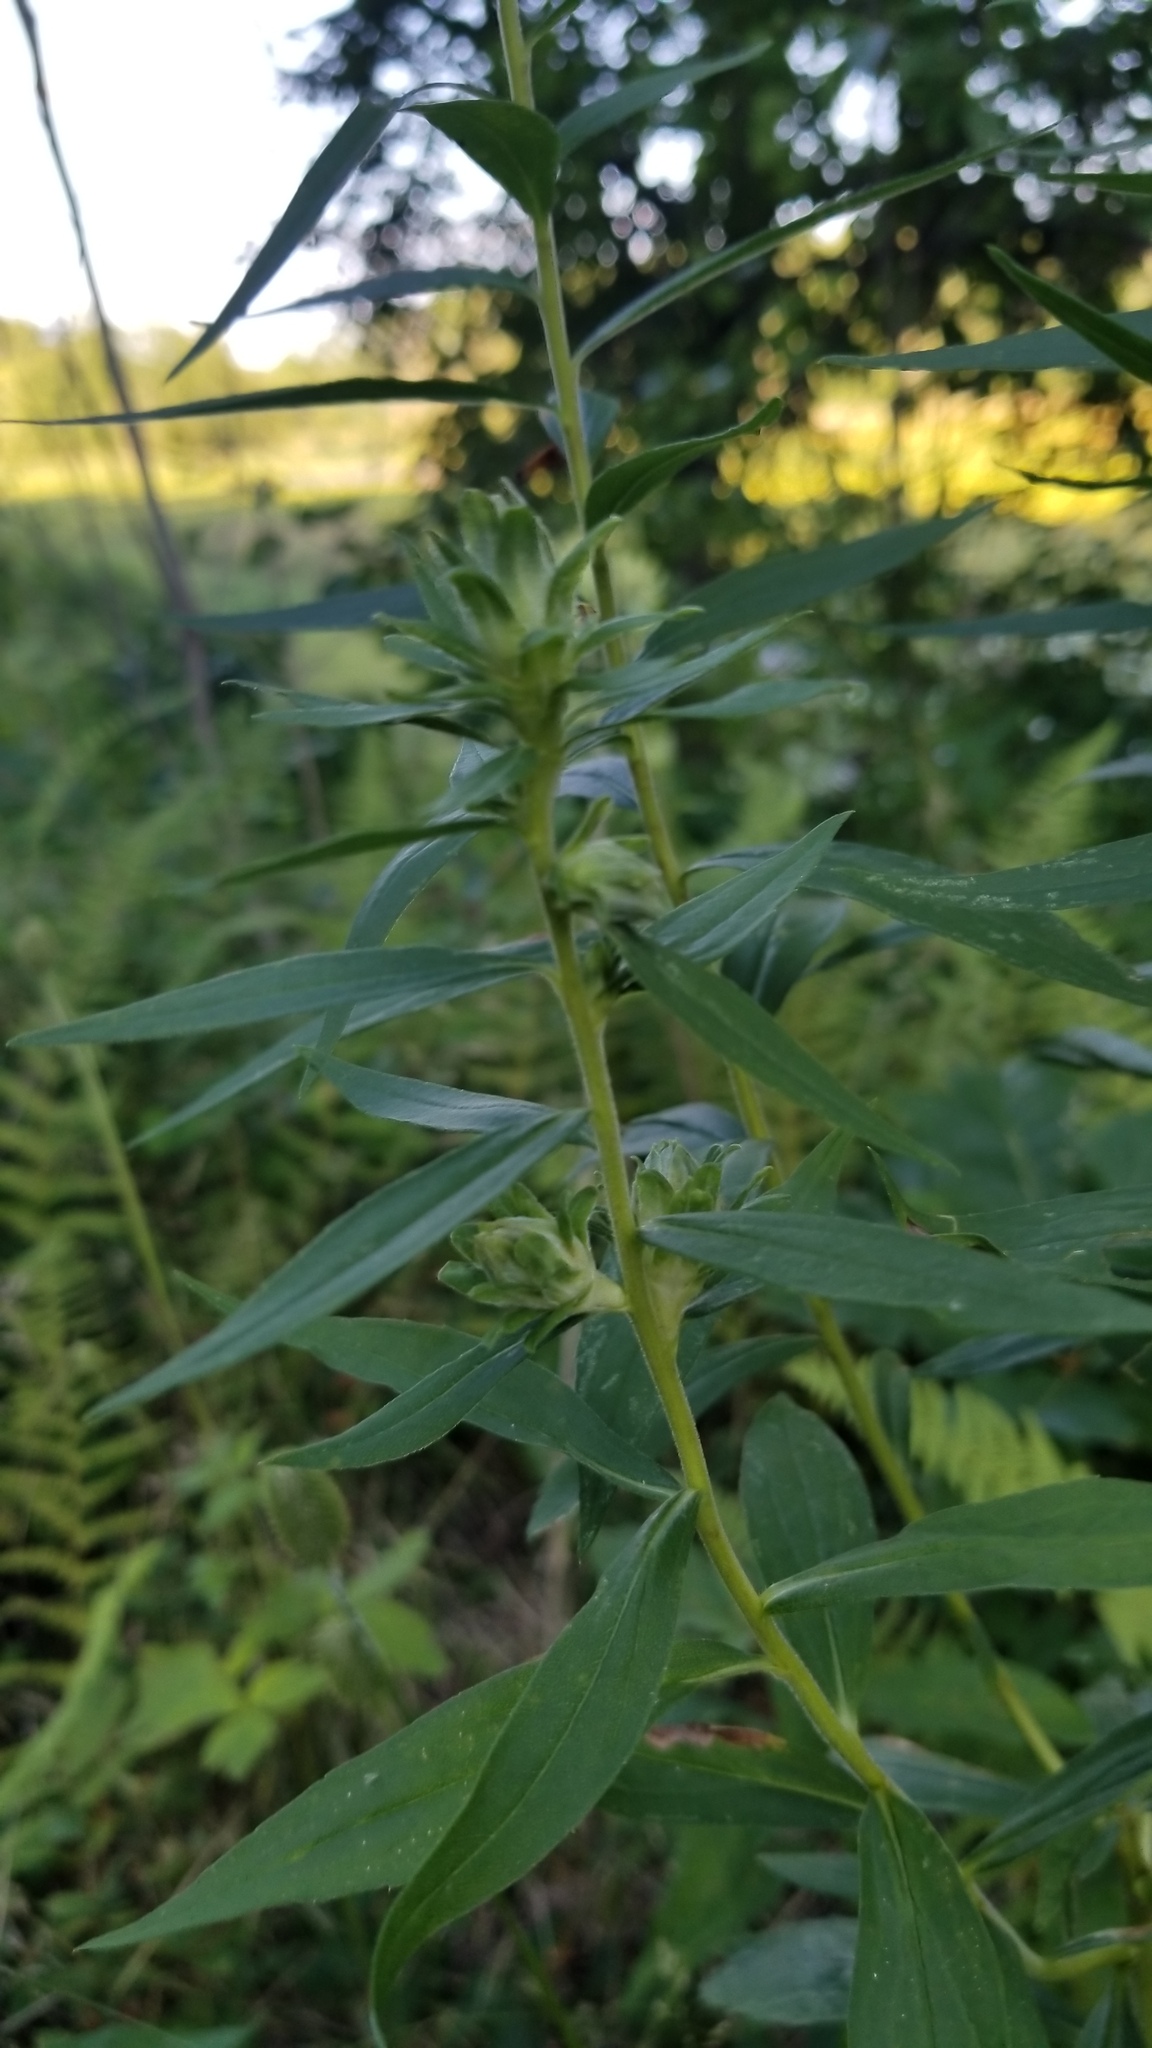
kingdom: Animalia
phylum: Arthropoda
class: Insecta
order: Diptera
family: Tephritidae
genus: Procecidochares
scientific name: Procecidochares atra
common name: Goldenrod brussels sprout gall fly
